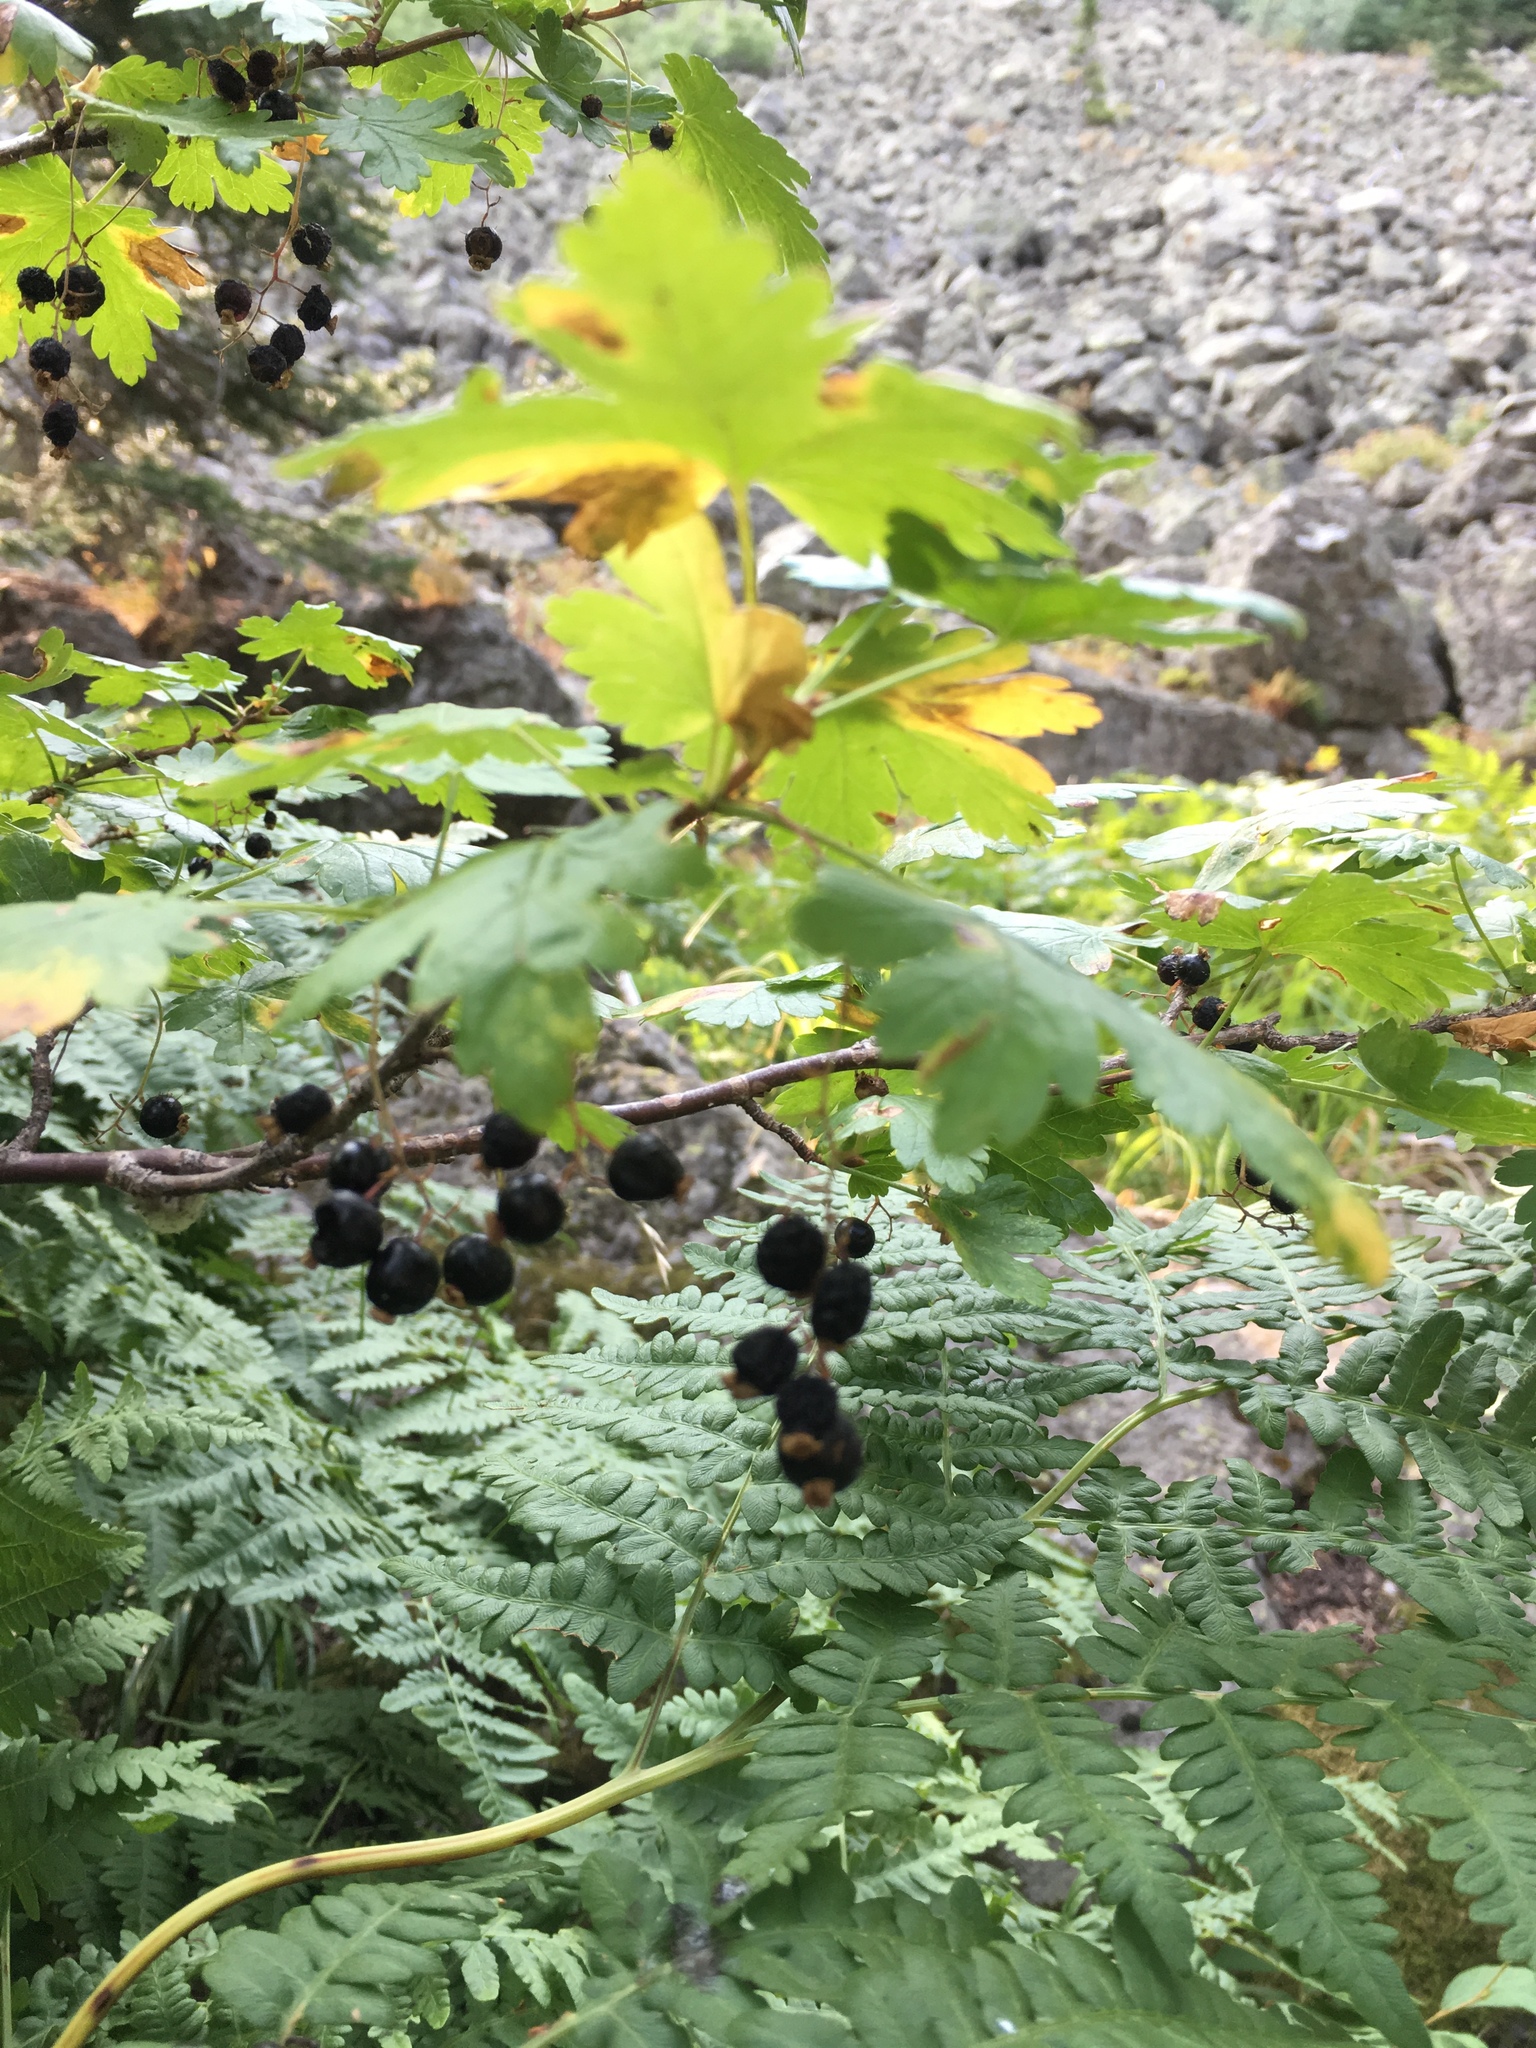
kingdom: Plantae
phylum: Tracheophyta
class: Magnoliopsida
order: Saxifragales
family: Grossulariaceae
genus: Ribes
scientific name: Ribes lacustre
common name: Black gooseberry
